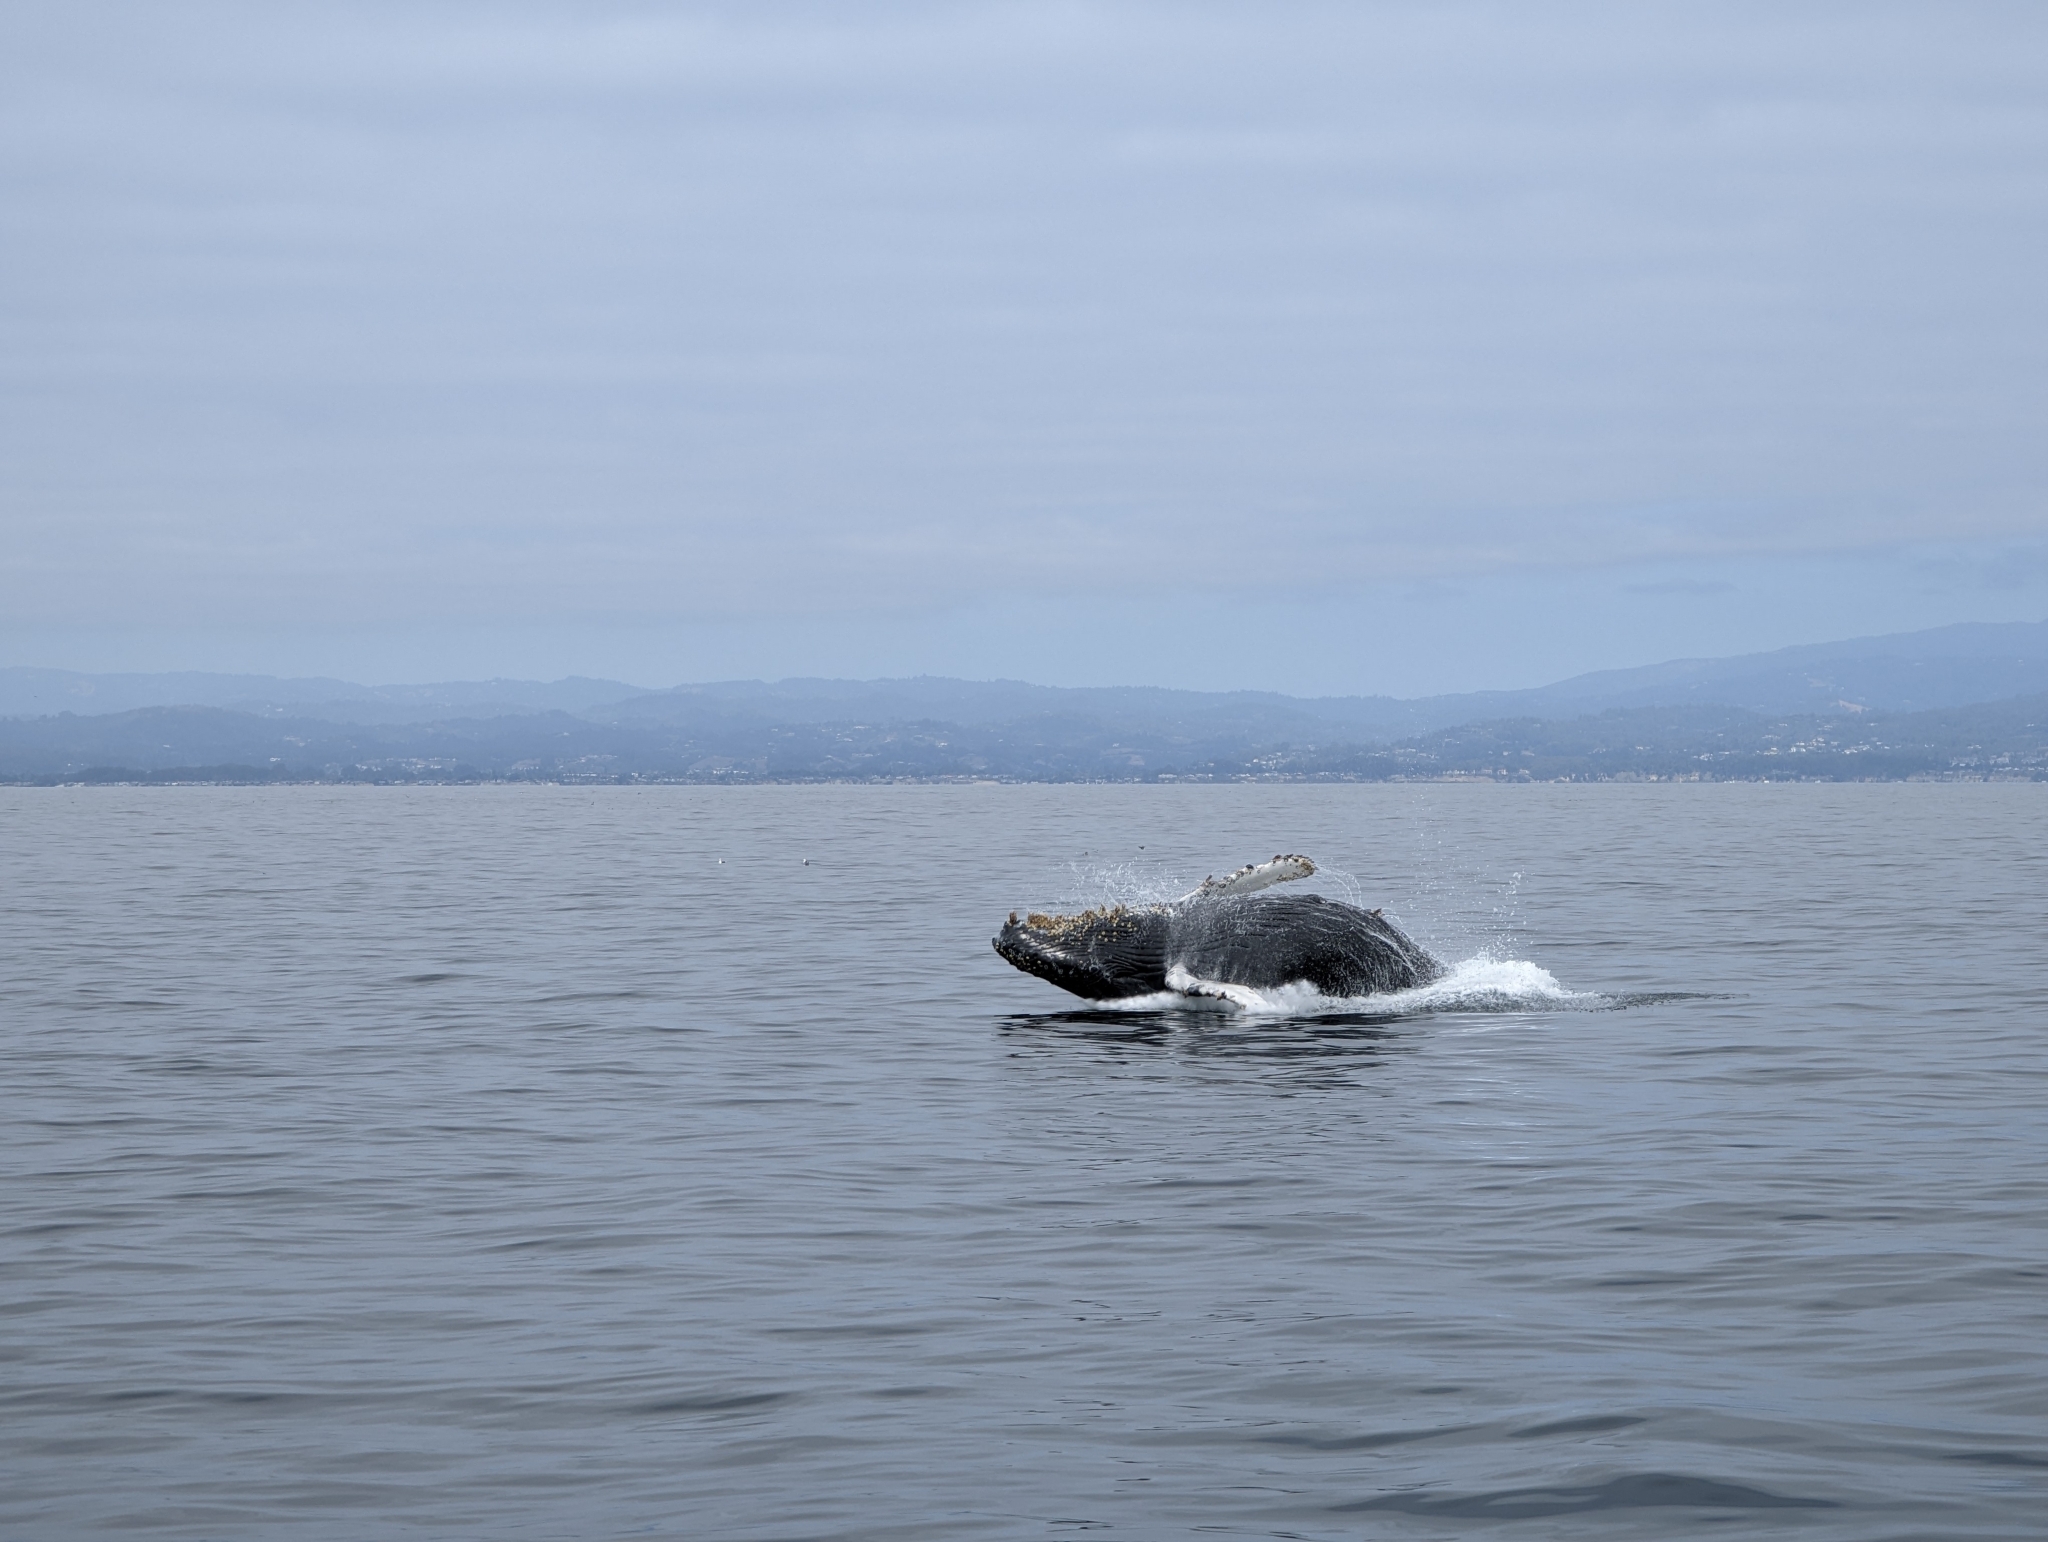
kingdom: Animalia
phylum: Chordata
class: Mammalia
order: Cetacea
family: Balaenopteridae
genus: Megaptera
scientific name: Megaptera novaeangliae
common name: Humpback whale
